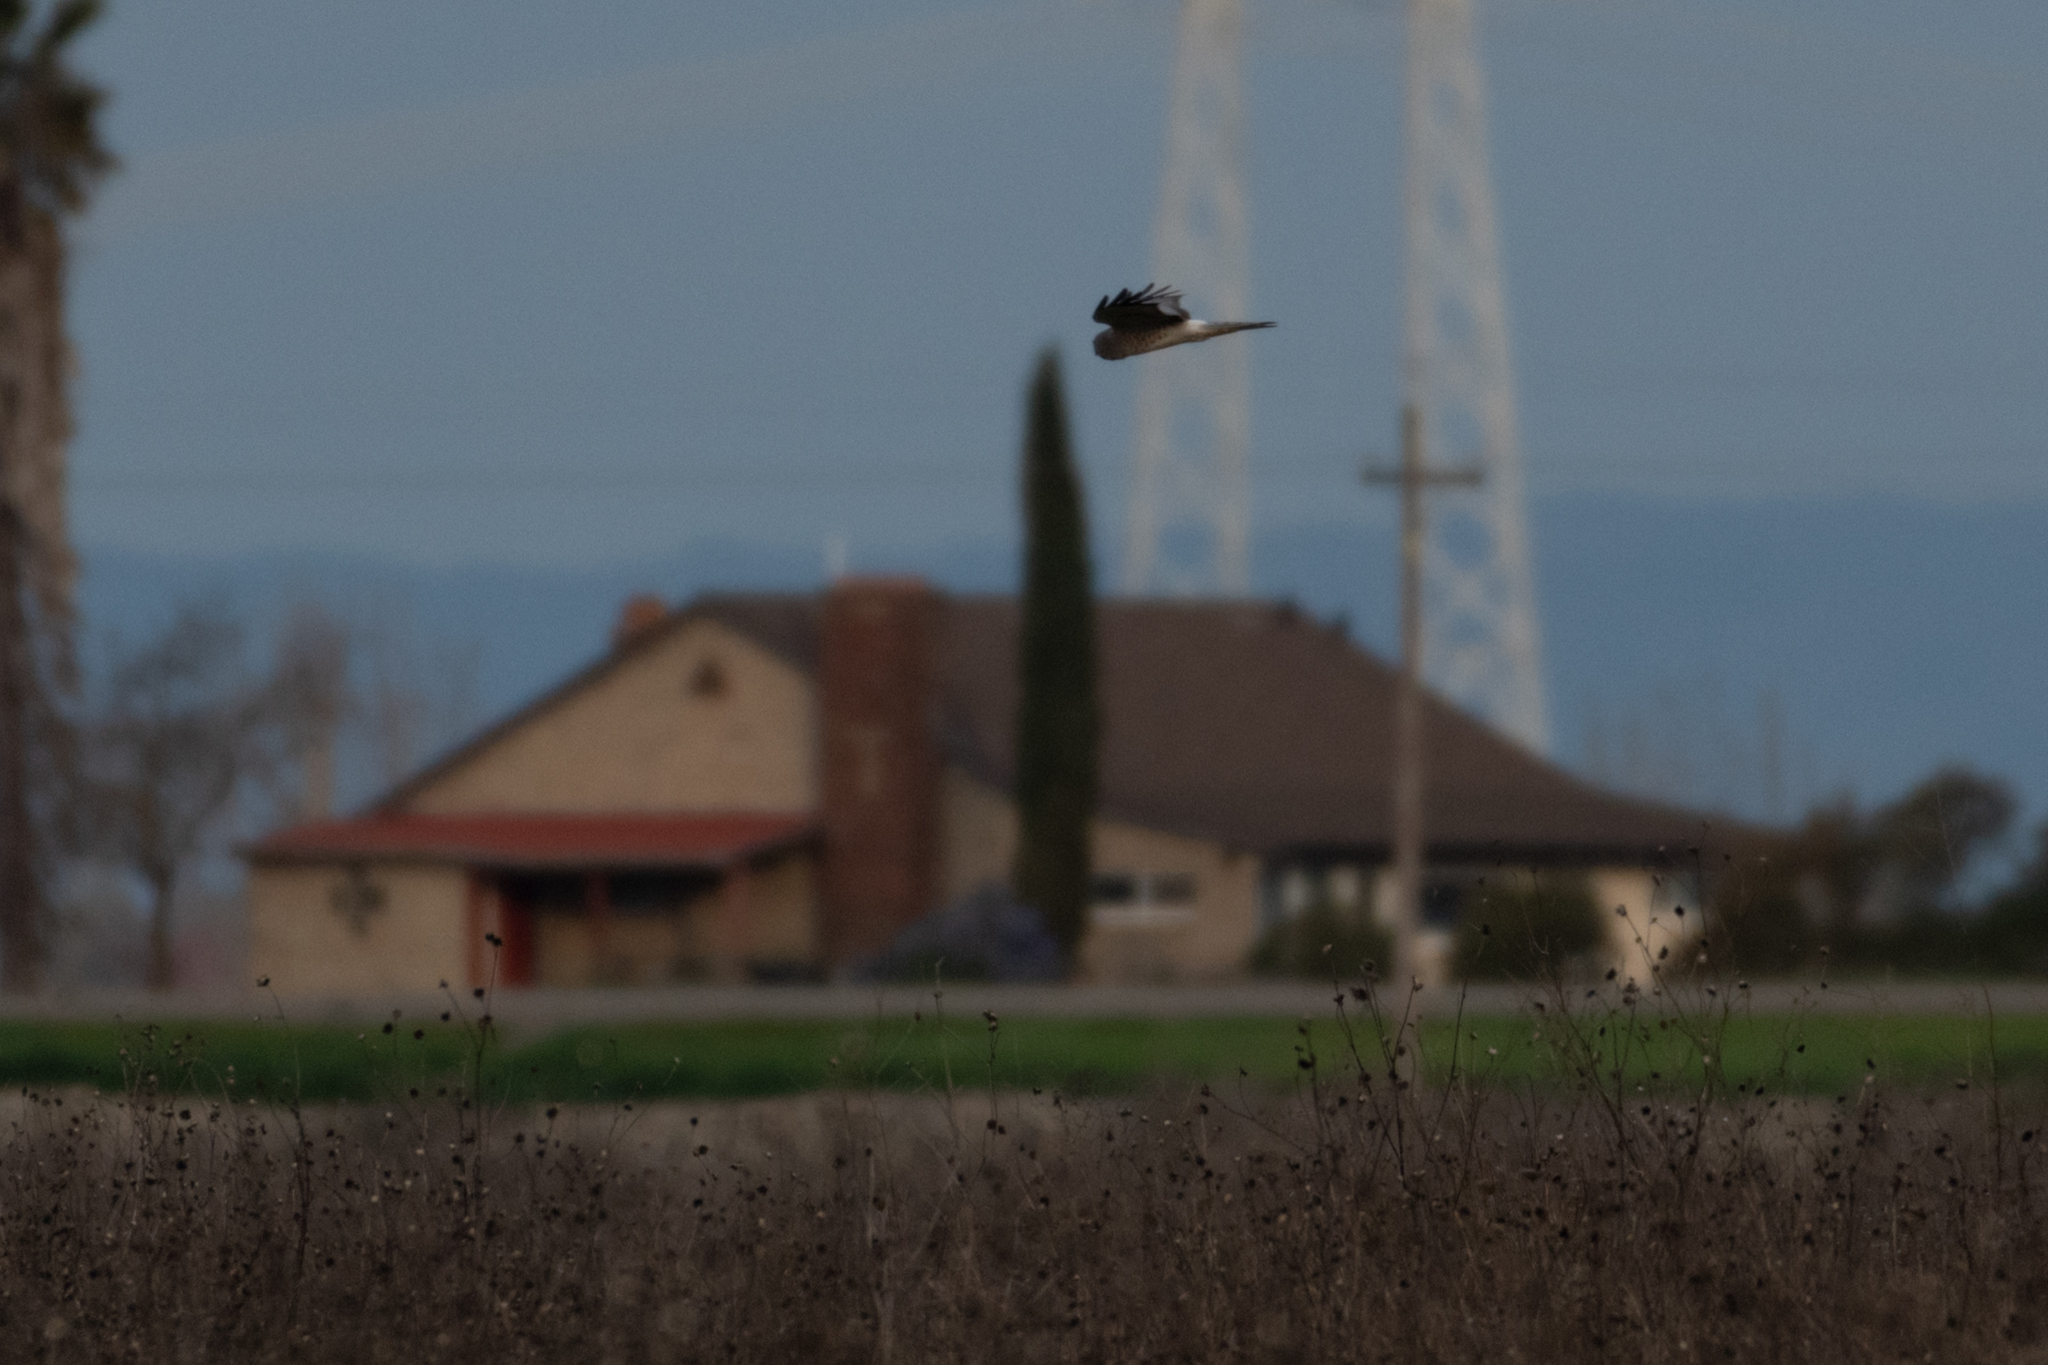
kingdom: Animalia
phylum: Chordata
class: Aves
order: Accipitriformes
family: Accipitridae
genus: Circus
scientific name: Circus cyaneus
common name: Hen harrier
